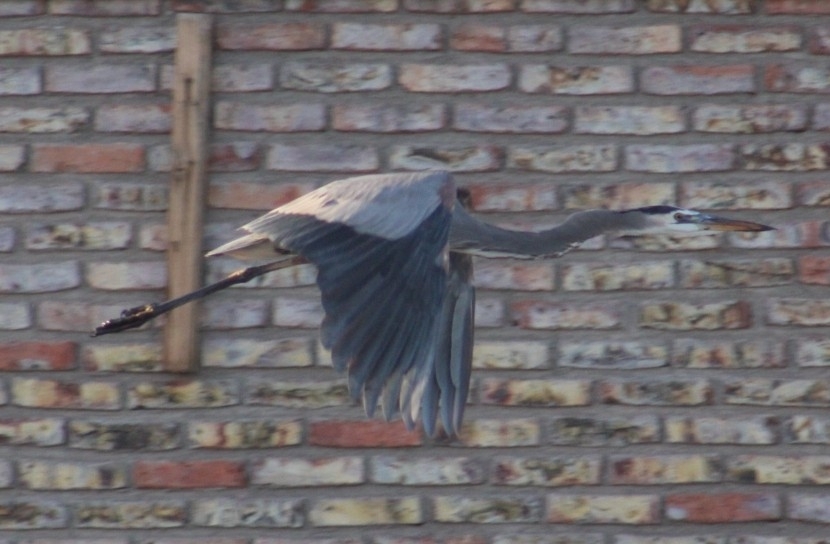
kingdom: Animalia
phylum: Chordata
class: Aves
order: Pelecaniformes
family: Ardeidae
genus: Ardea
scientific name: Ardea herodias
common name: Great blue heron
